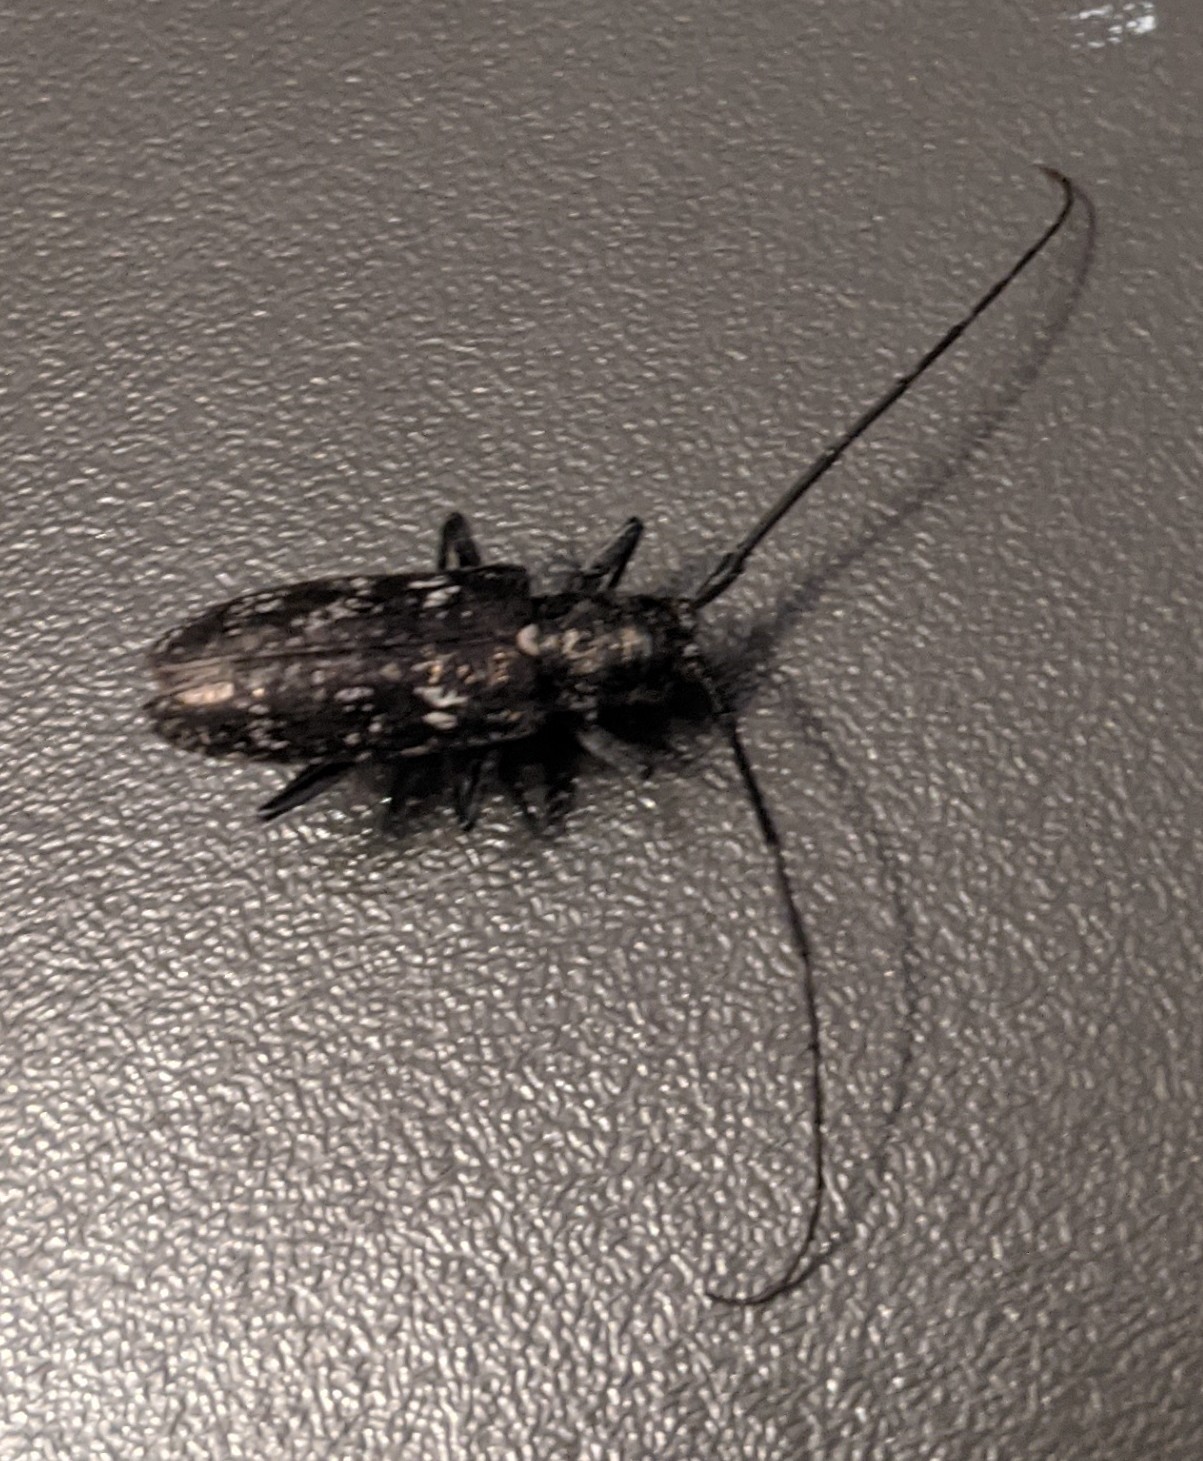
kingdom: Animalia
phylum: Arthropoda
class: Insecta
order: Coleoptera
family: Cerambycidae
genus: Monochamus
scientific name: Monochamus scutellatus
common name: White-spotted sawyer beetle
